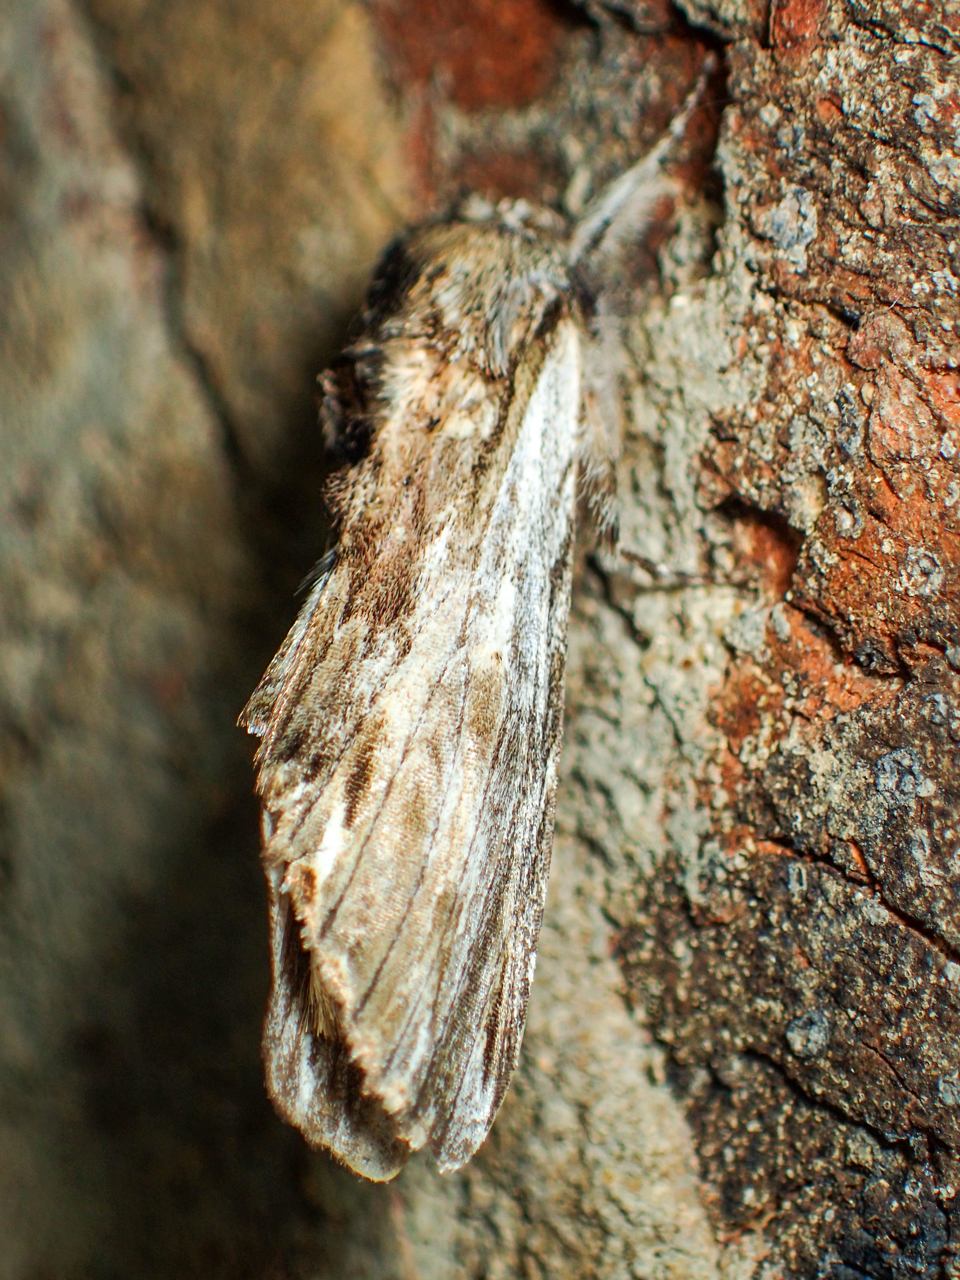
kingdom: Animalia
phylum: Arthropoda
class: Insecta
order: Lepidoptera
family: Notodontidae
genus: Oligocentria
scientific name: Oligocentria Ianassa lignicolor
